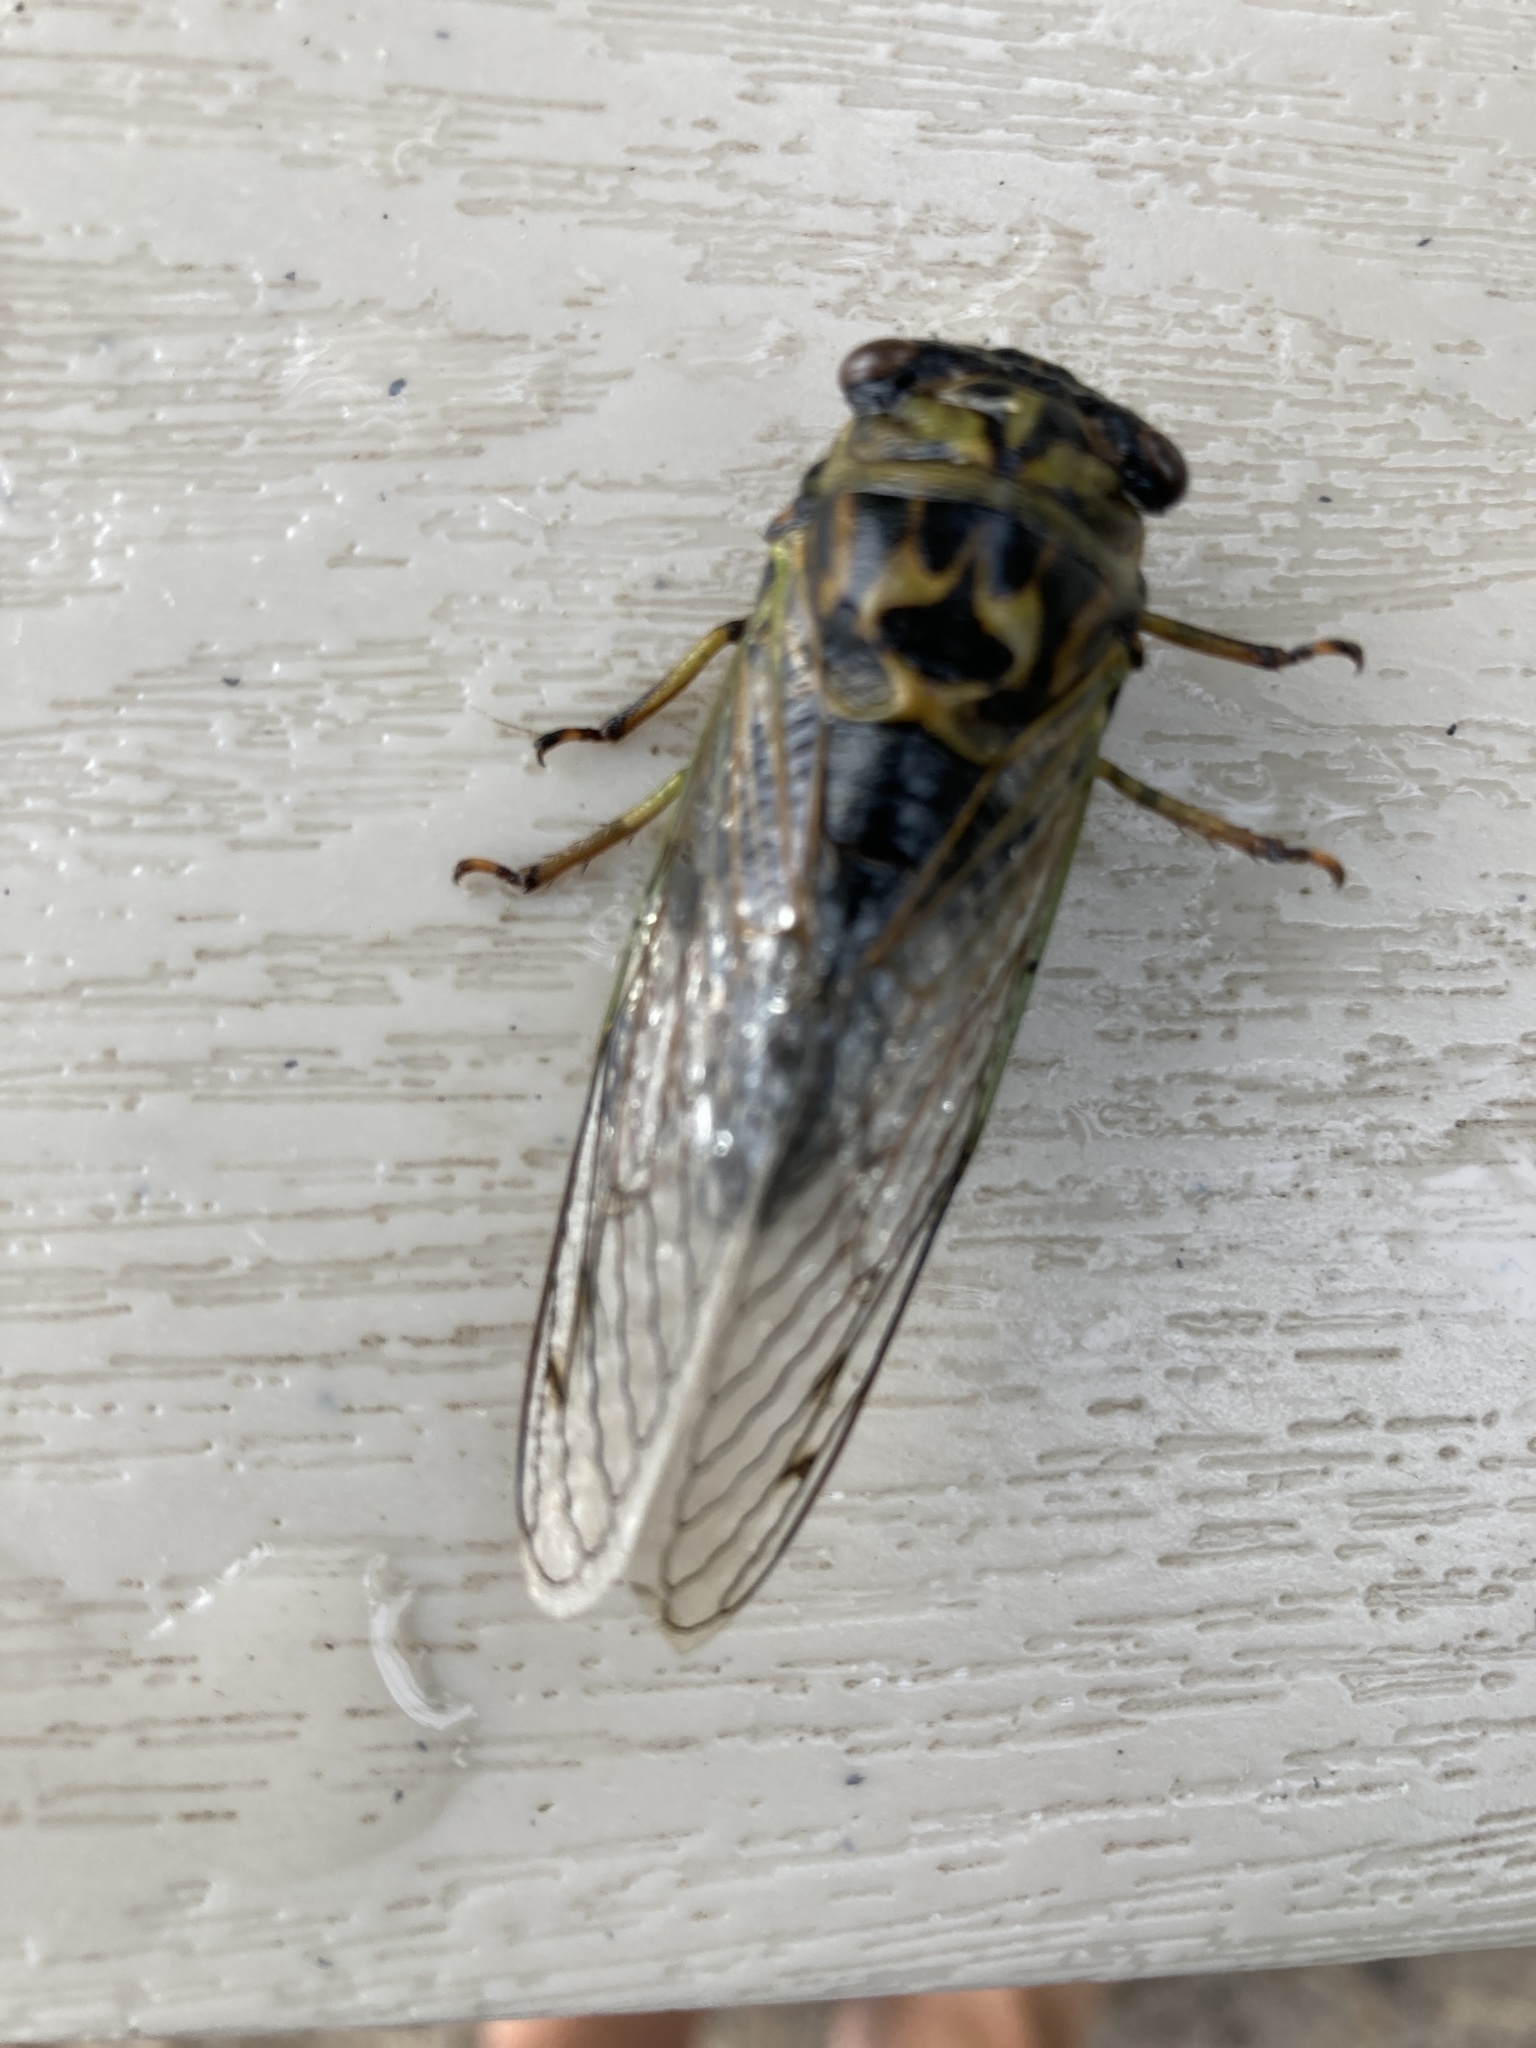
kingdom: Animalia
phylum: Arthropoda
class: Insecta
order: Hemiptera
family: Cicadidae
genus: Neotibicen
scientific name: Neotibicen canicularis
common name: God-day cicada
